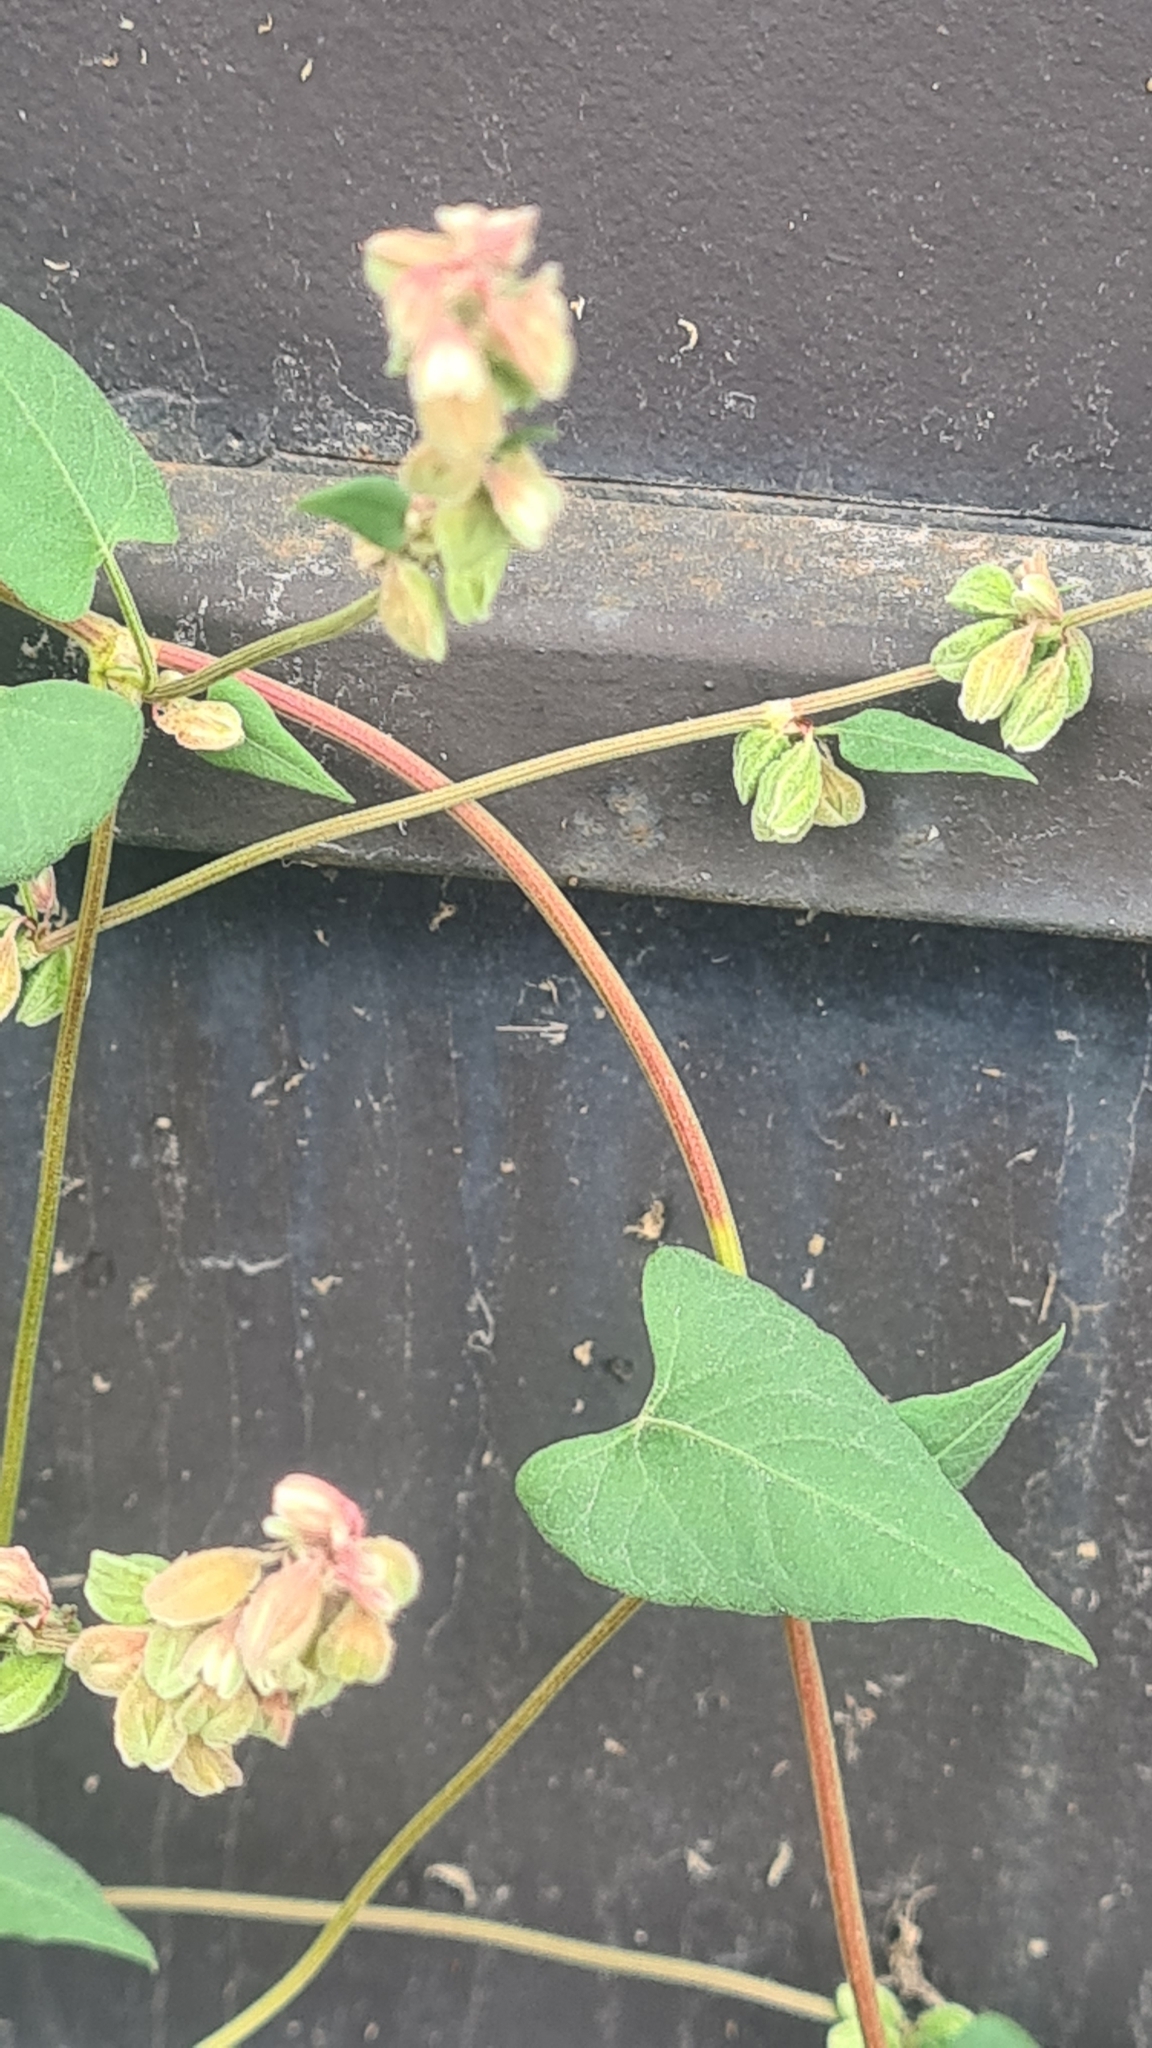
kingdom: Plantae
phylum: Tracheophyta
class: Magnoliopsida
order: Caryophyllales
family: Polygonaceae
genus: Fallopia
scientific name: Fallopia convolvulus
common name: Black bindweed
